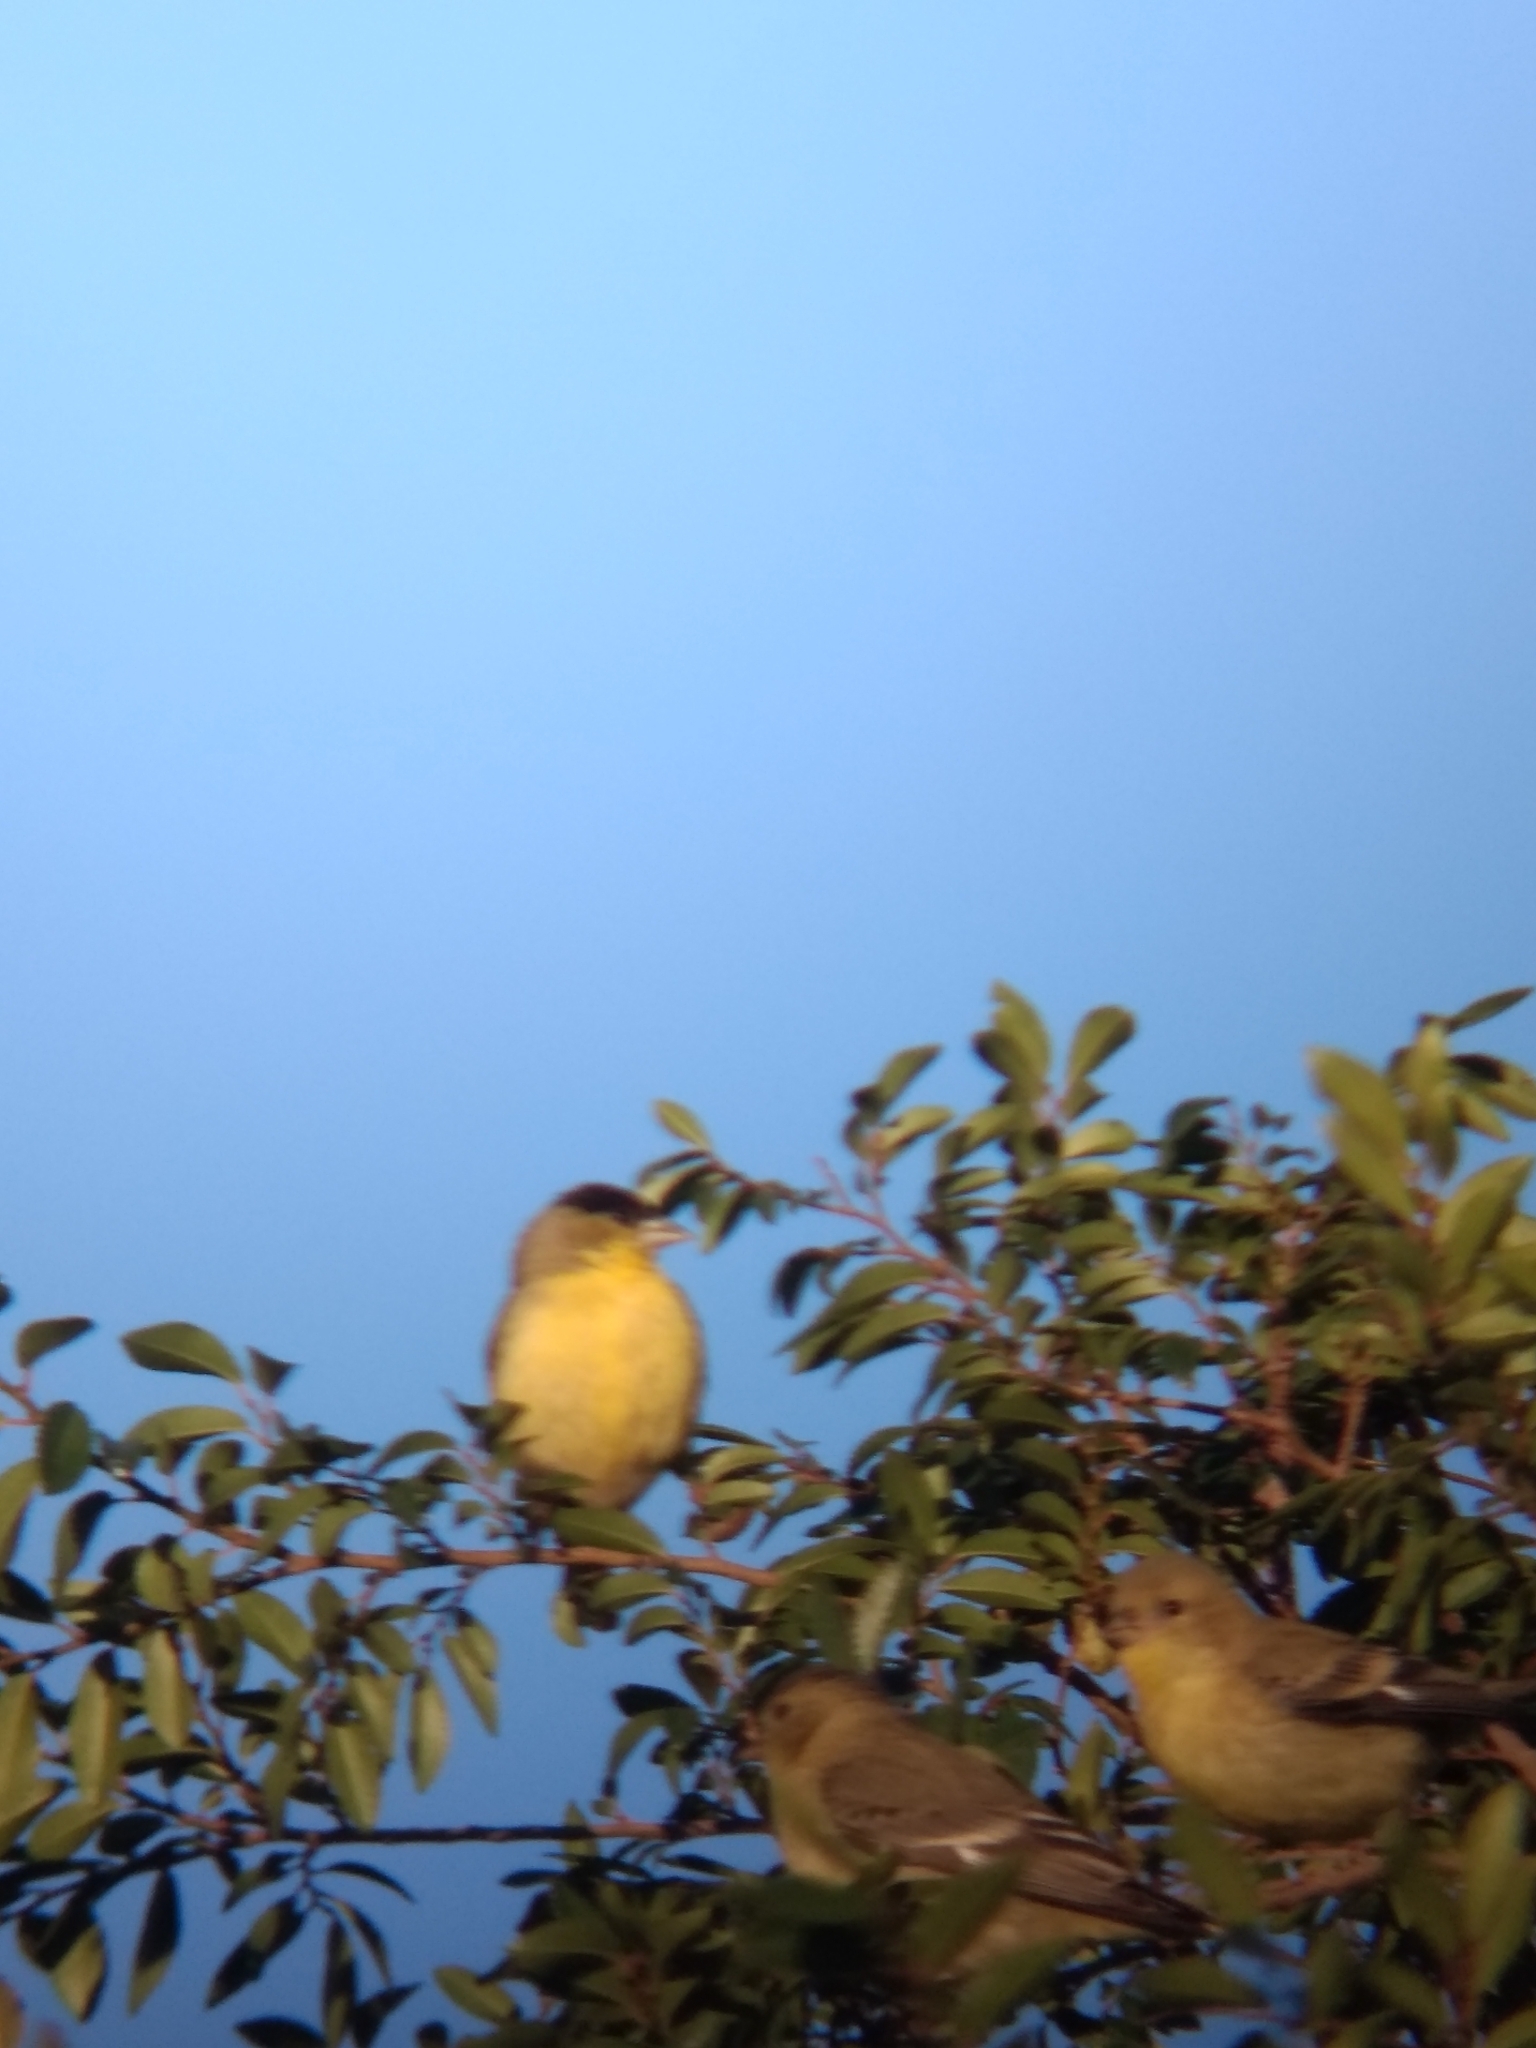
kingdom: Animalia
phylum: Chordata
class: Aves
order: Passeriformes
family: Fringillidae
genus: Spinus
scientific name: Spinus psaltria
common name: Lesser goldfinch
